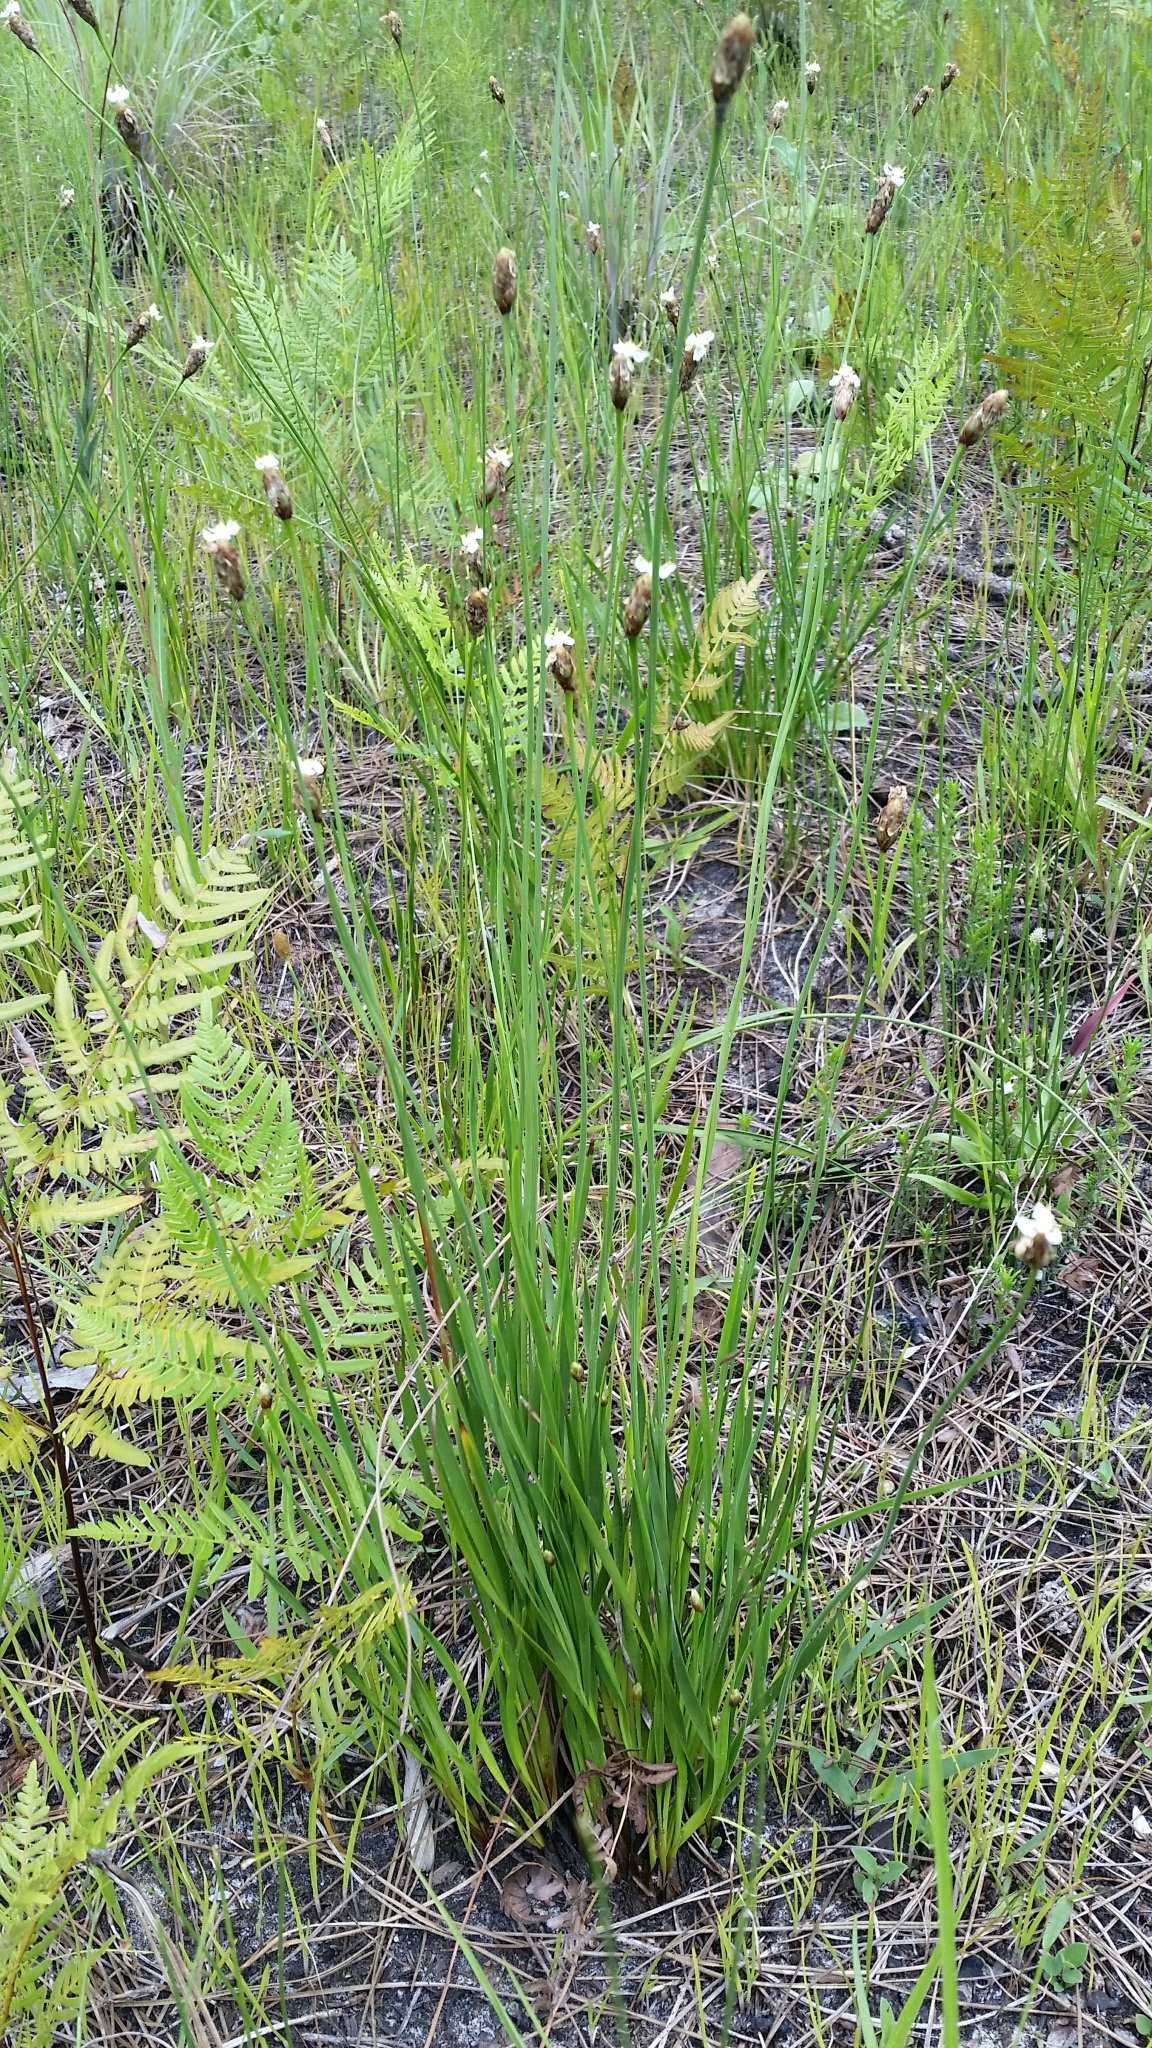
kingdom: Plantae
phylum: Tracheophyta
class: Liliopsida
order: Poales
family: Xyridaceae
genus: Xyris
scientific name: Xyris caroliniana
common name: Carolina yellow-eyed-grass
